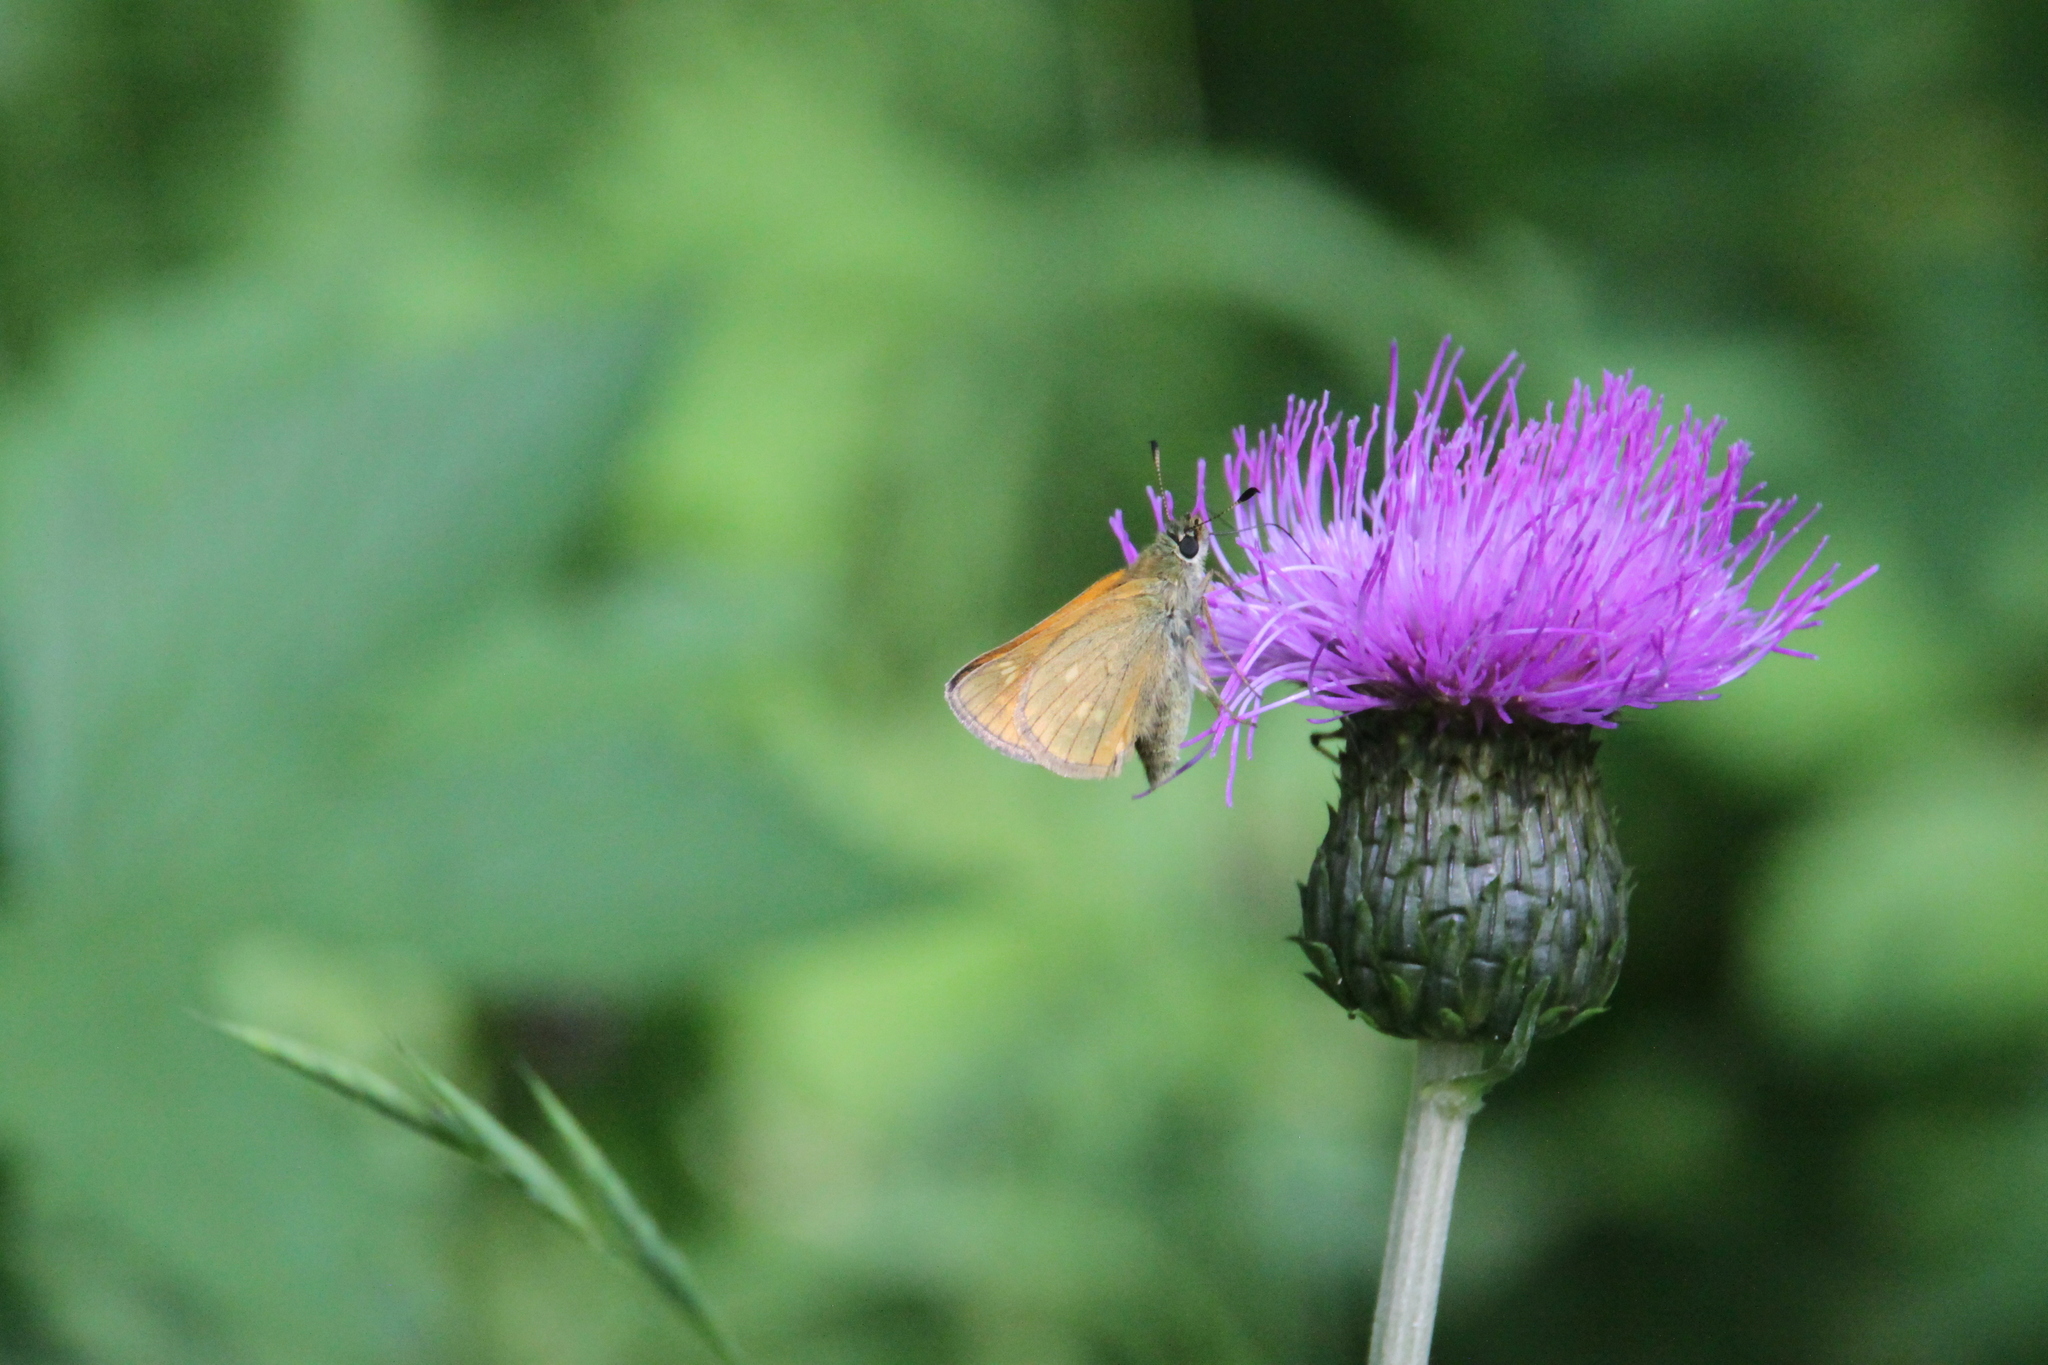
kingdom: Animalia
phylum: Arthropoda
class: Insecta
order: Lepidoptera
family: Hesperiidae
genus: Ochlodes
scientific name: Ochlodes venata
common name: Large skipper
